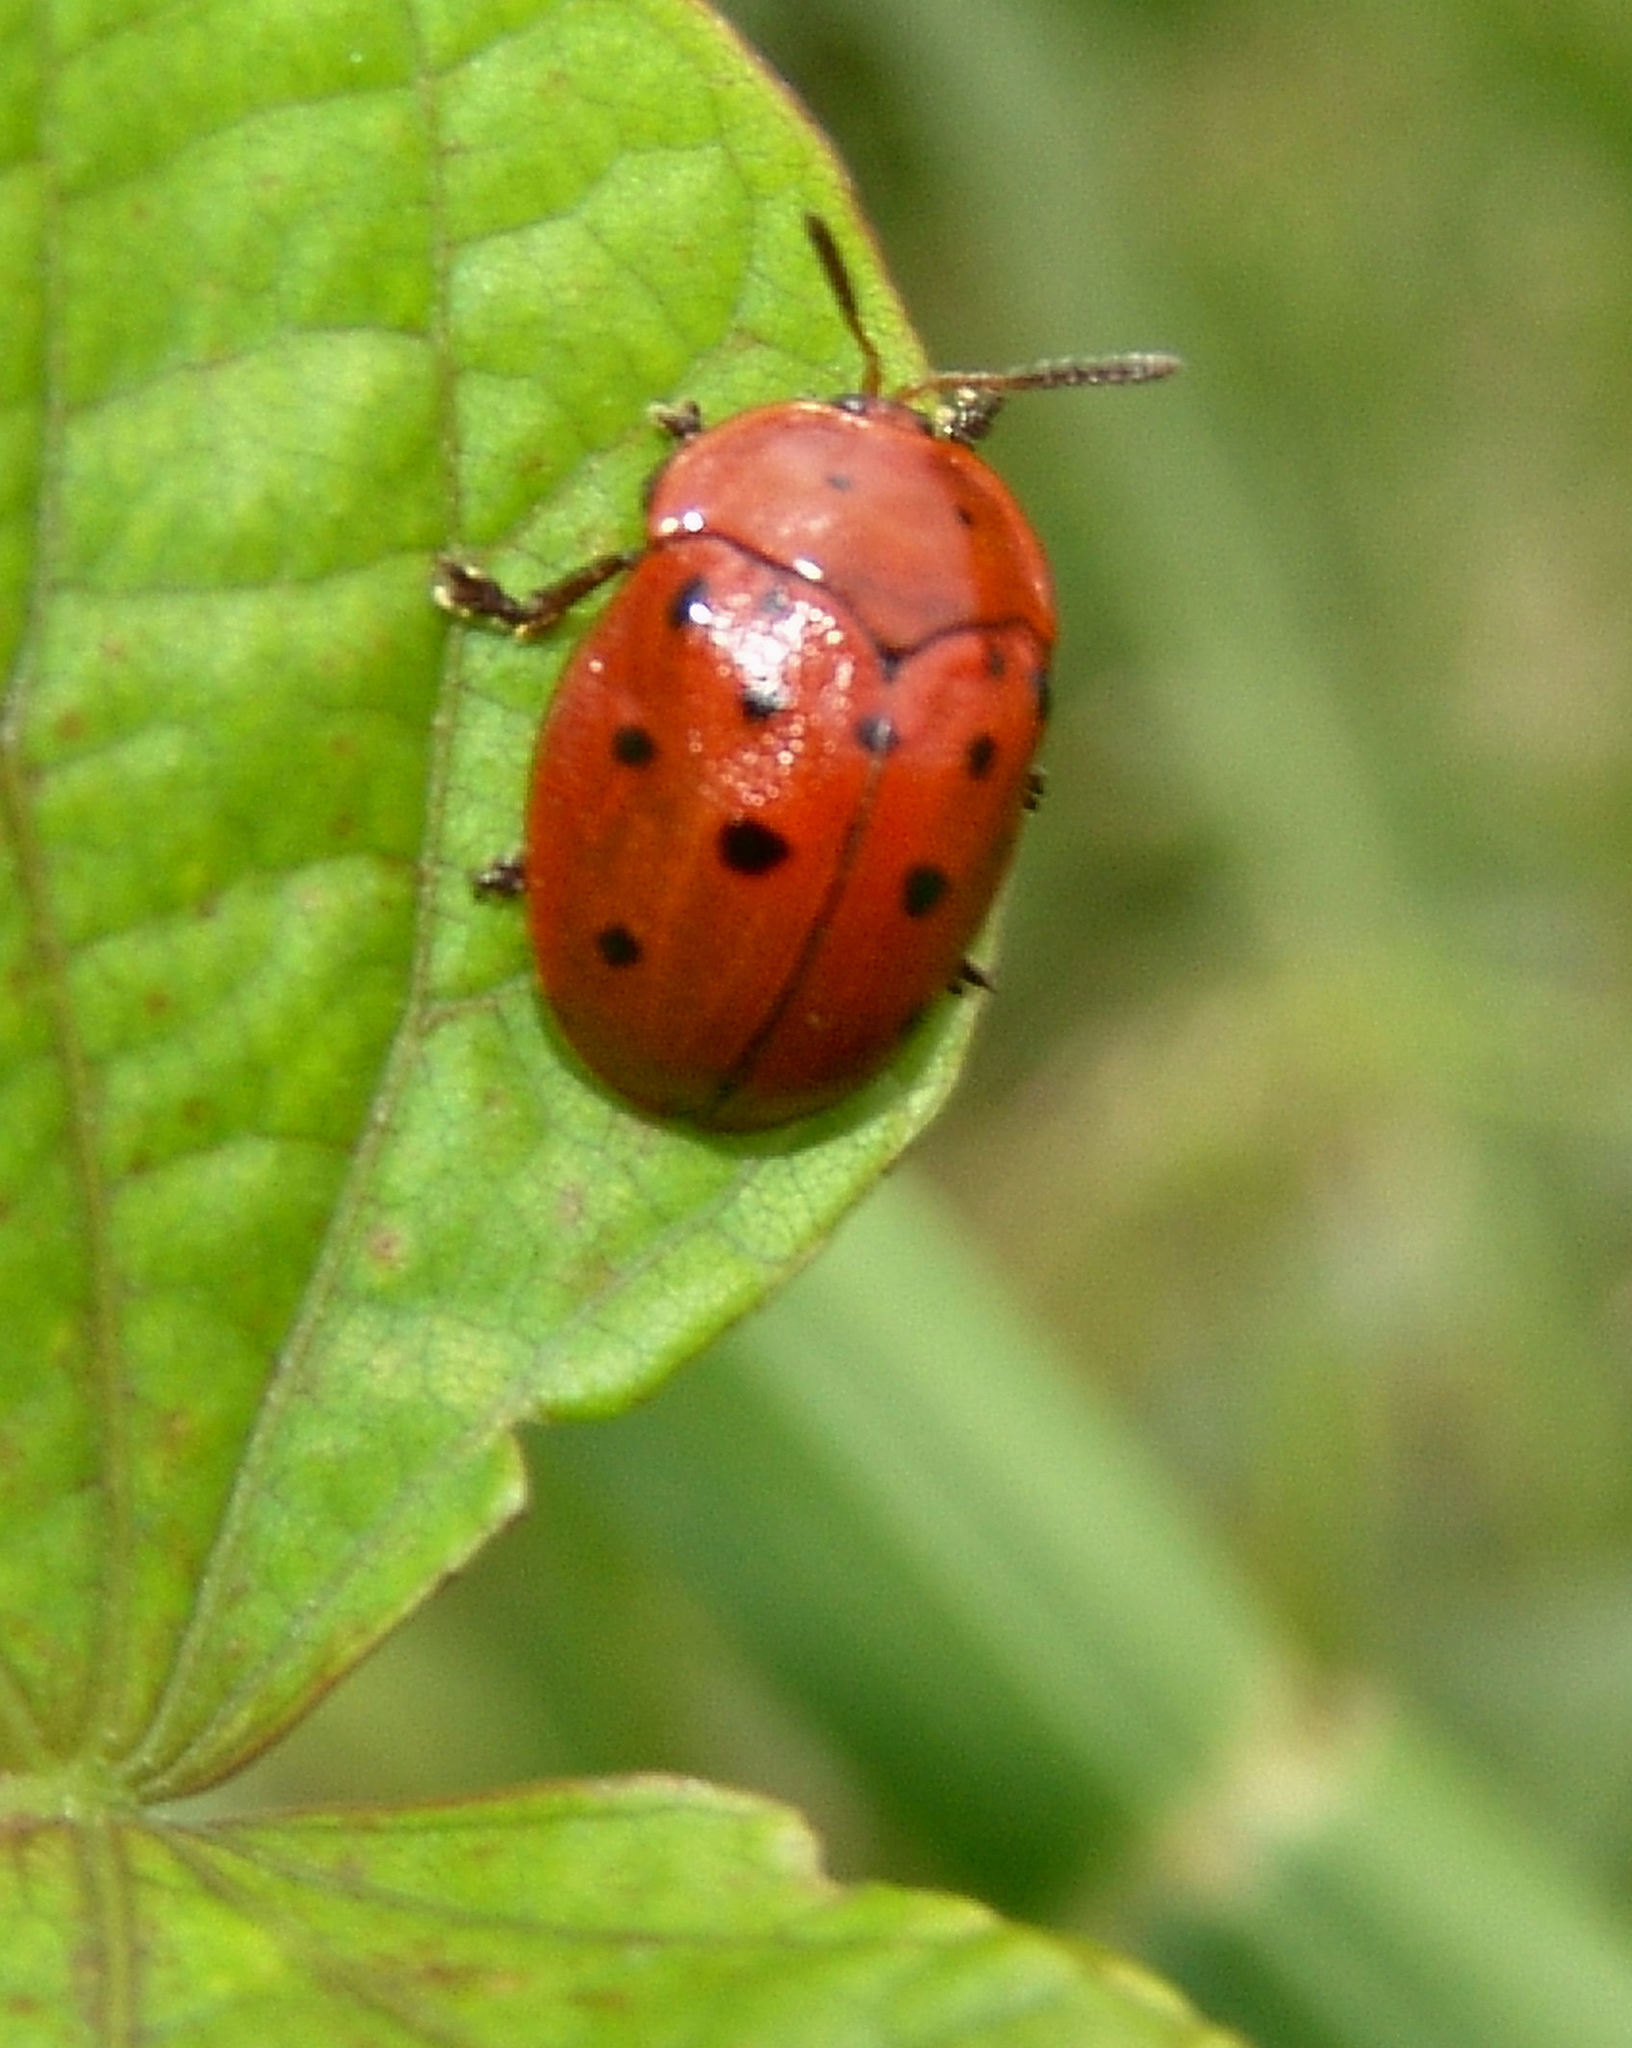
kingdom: Animalia
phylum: Arthropoda
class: Insecta
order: Coleoptera
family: Chrysomelidae
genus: Chelymorpha
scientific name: Chelymorpha cassidea
